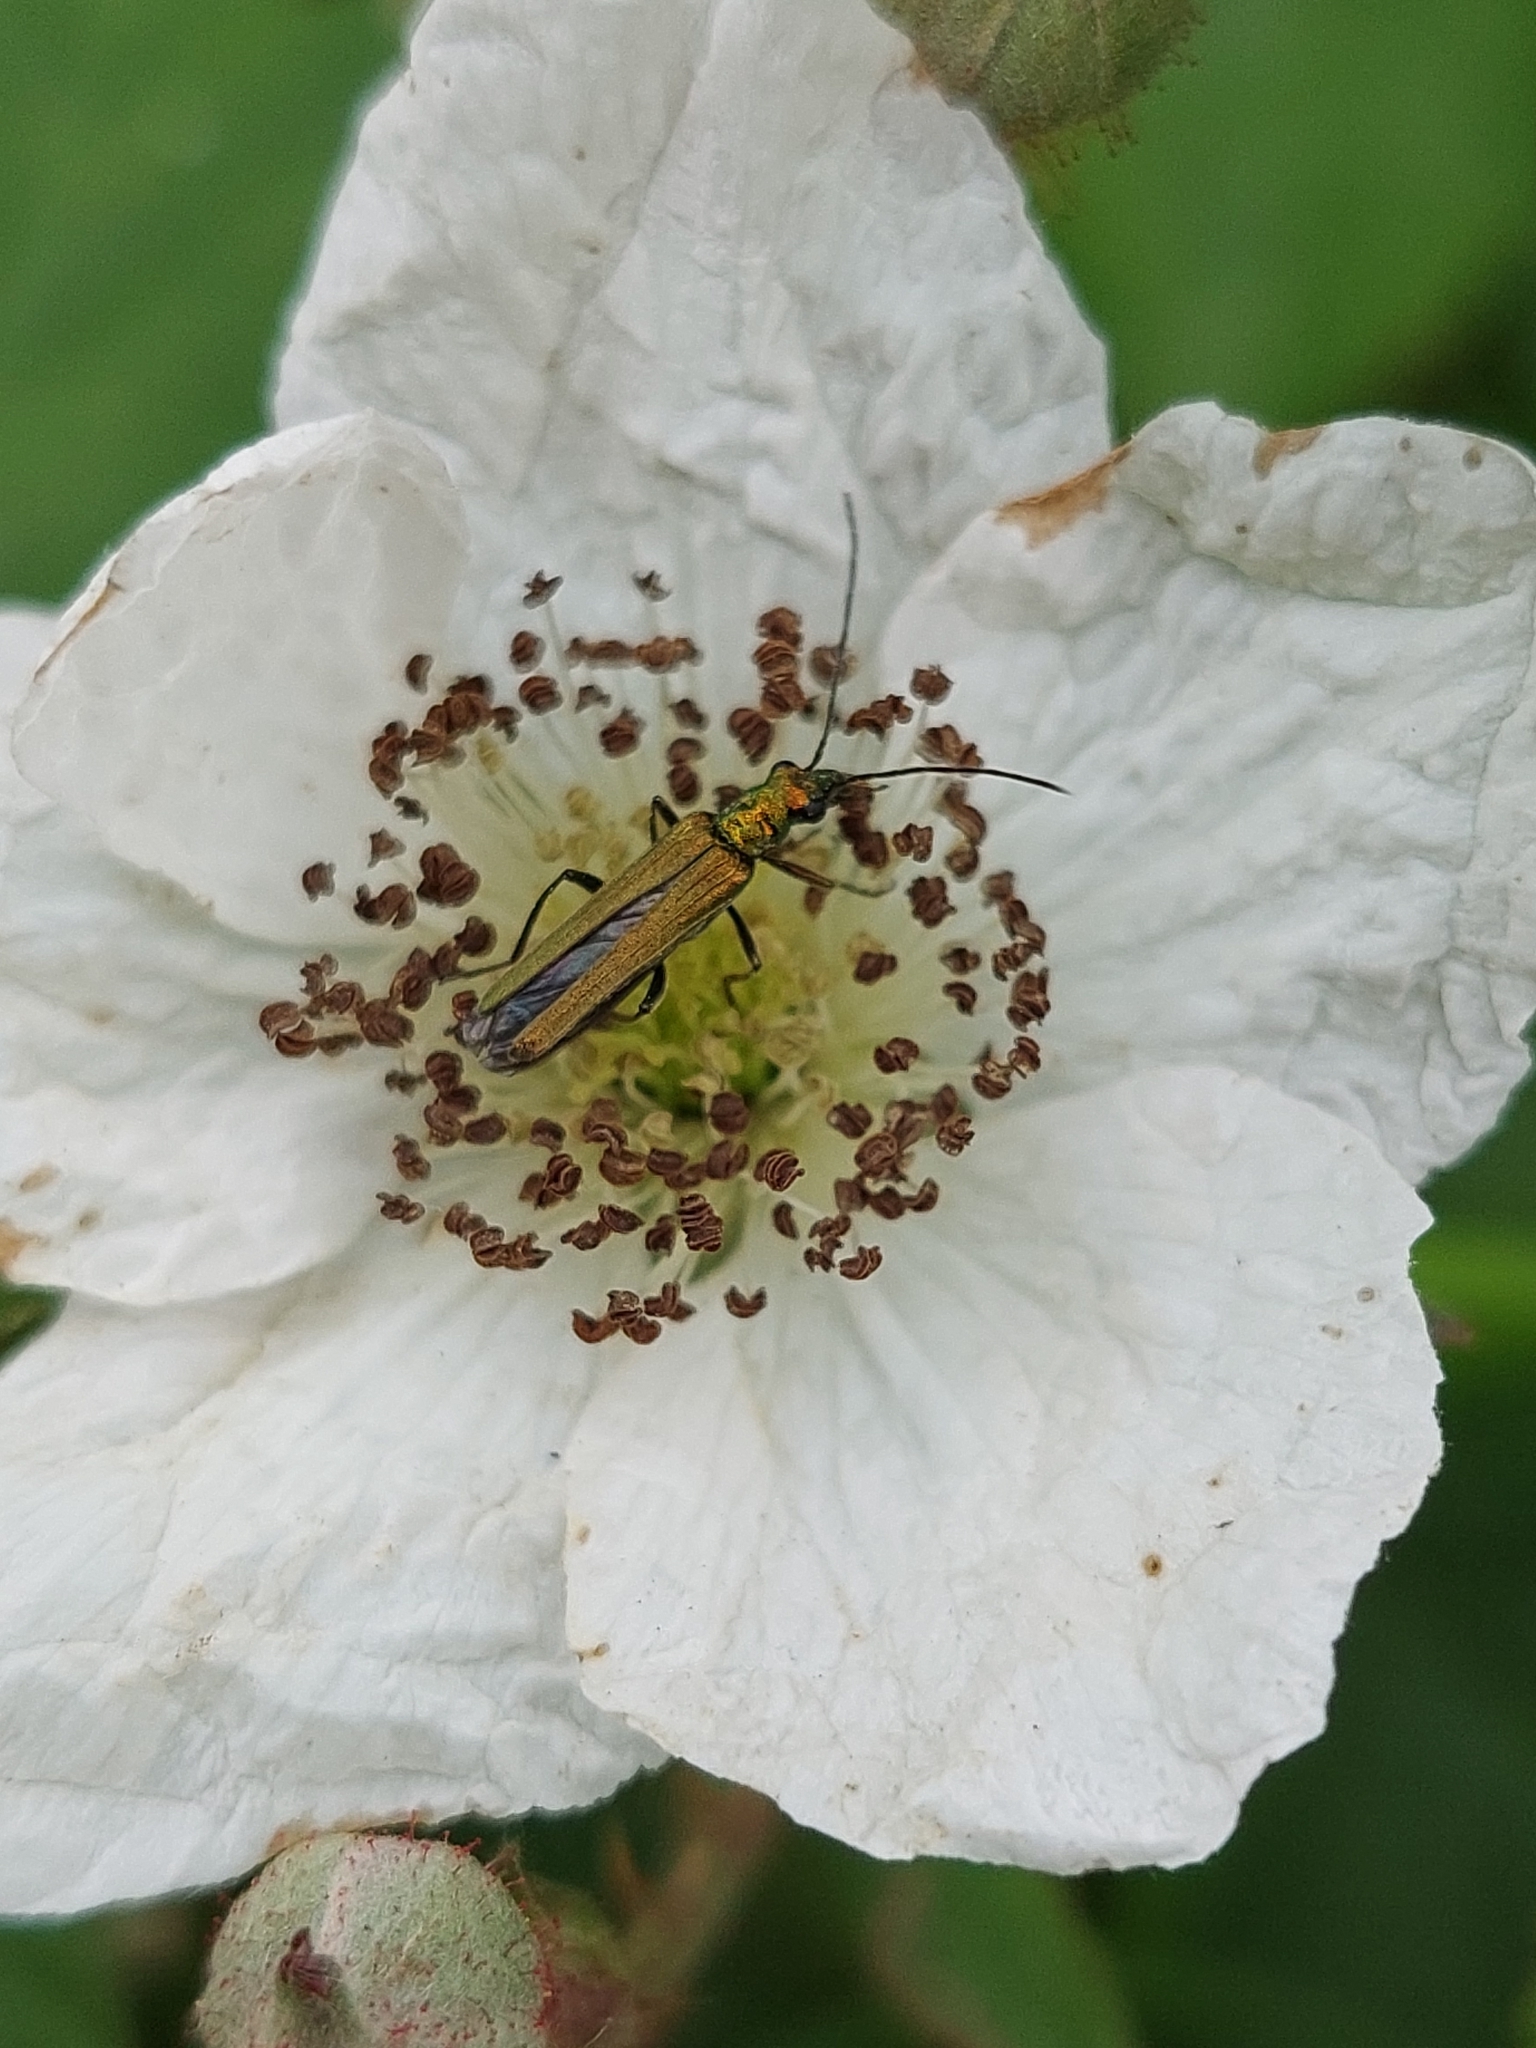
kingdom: Animalia
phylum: Arthropoda
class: Insecta
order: Coleoptera
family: Oedemeridae
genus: Oedemera
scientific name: Oedemera nobilis
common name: Swollen-thighed beetle
